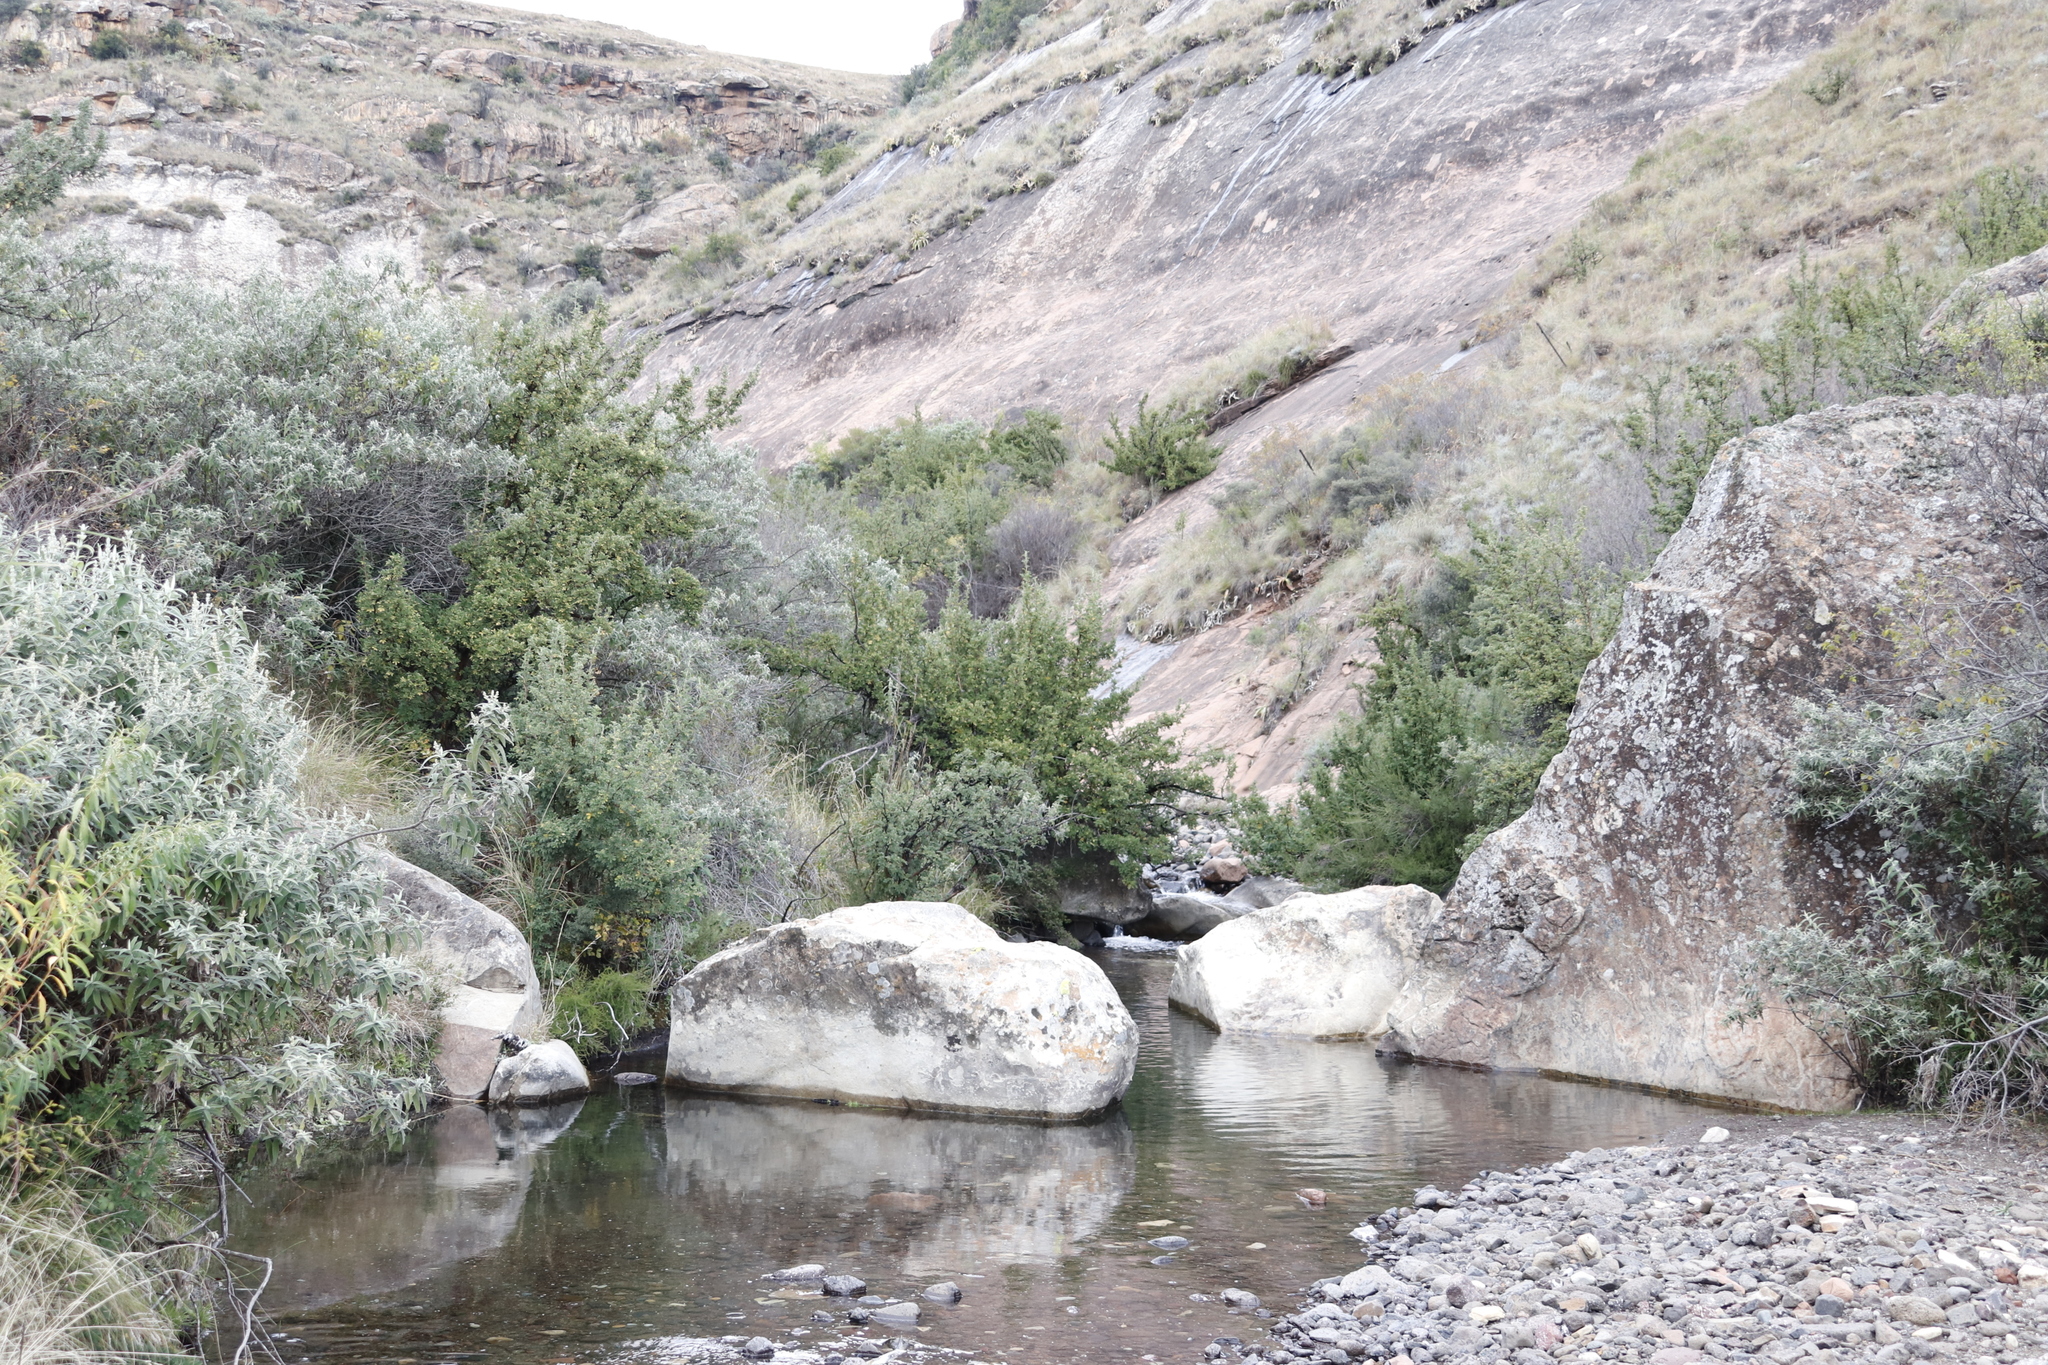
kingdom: Plantae
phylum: Tracheophyta
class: Magnoliopsida
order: Rosales
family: Rosaceae
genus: Leucosidea
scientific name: Leucosidea sericea
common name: Oldwood
